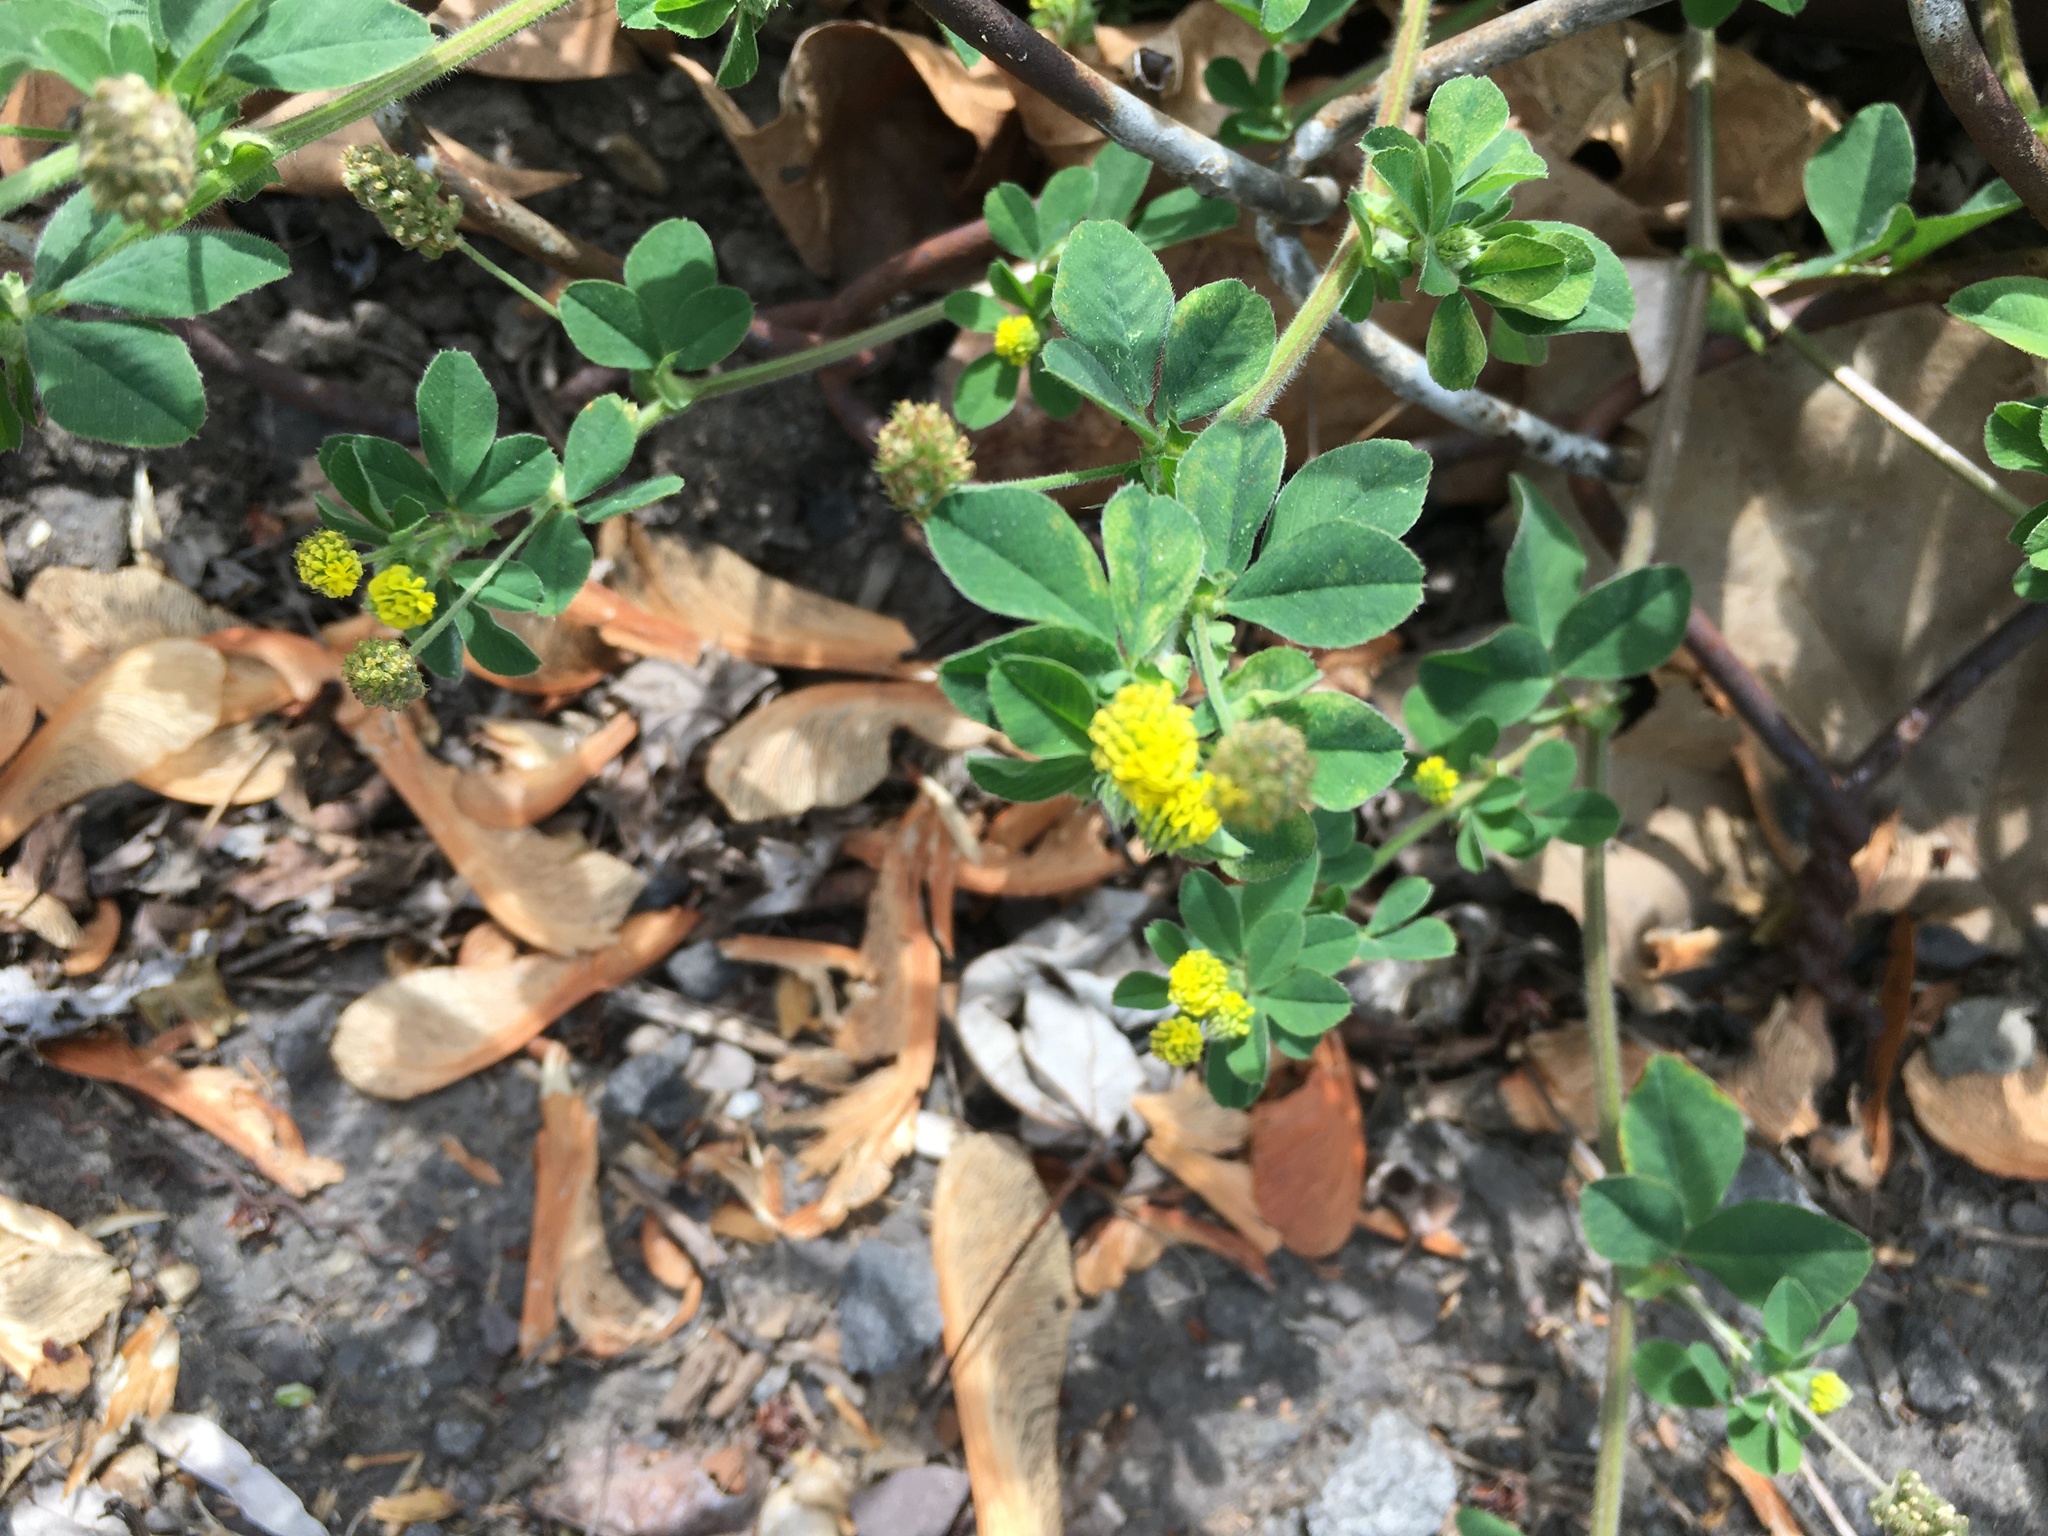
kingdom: Plantae
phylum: Tracheophyta
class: Magnoliopsida
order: Fabales
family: Fabaceae
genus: Medicago
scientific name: Medicago lupulina
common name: Black medick
